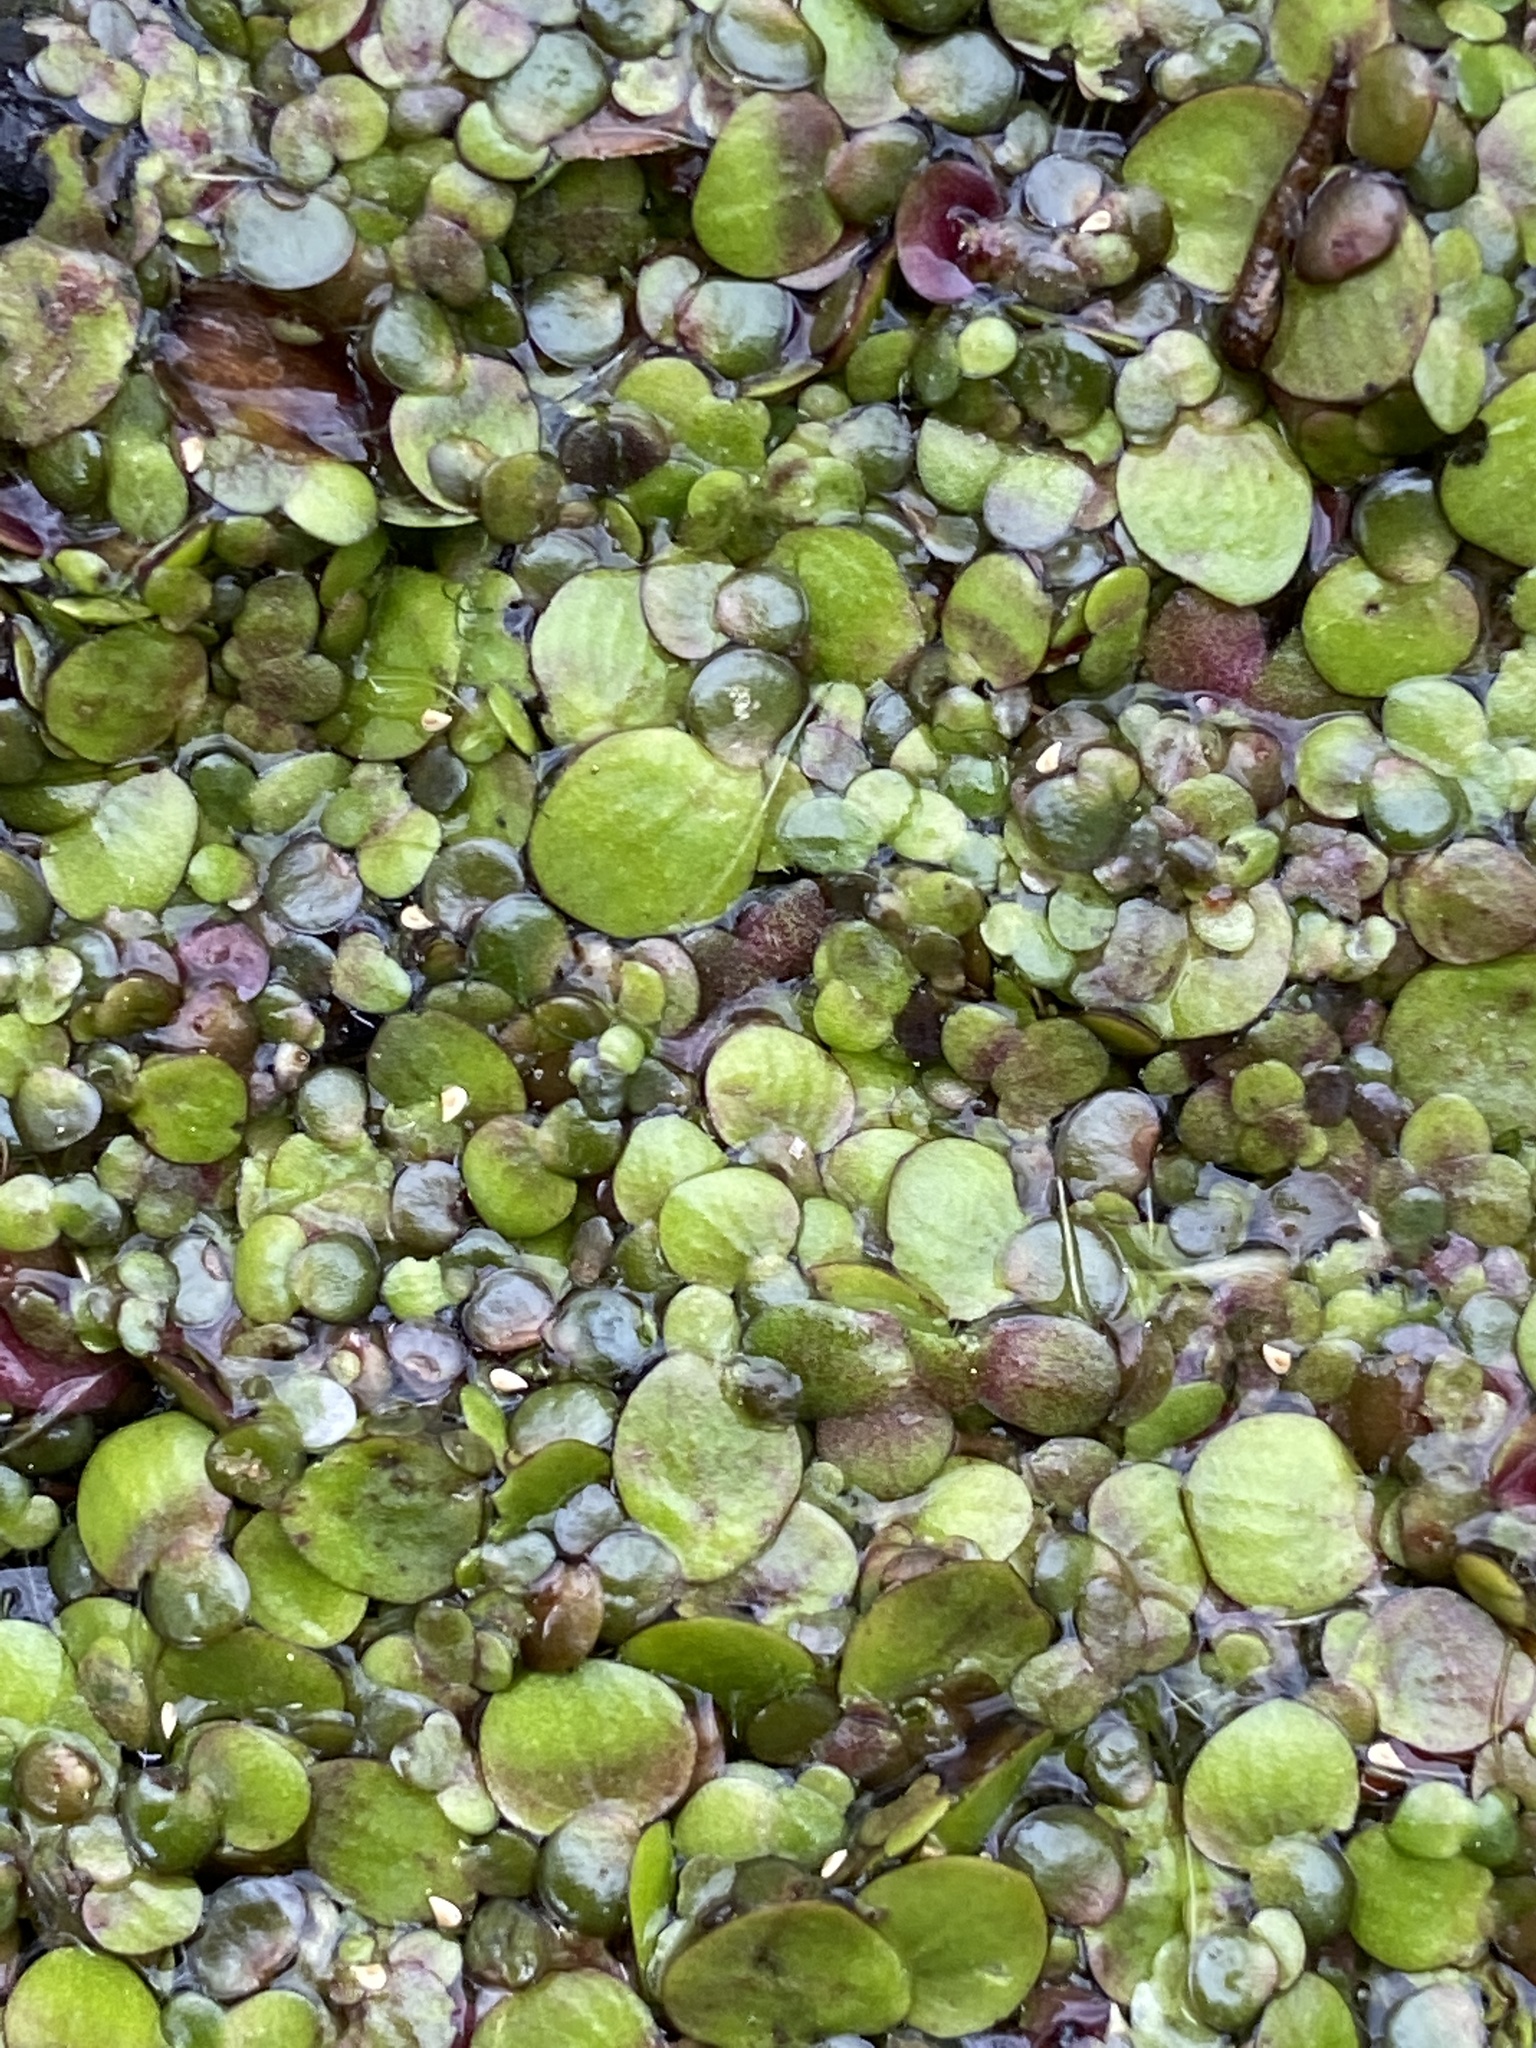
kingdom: Plantae
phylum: Tracheophyta
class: Liliopsida
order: Alismatales
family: Araceae
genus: Spirodela
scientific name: Spirodela polyrhiza
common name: Great duckweed
